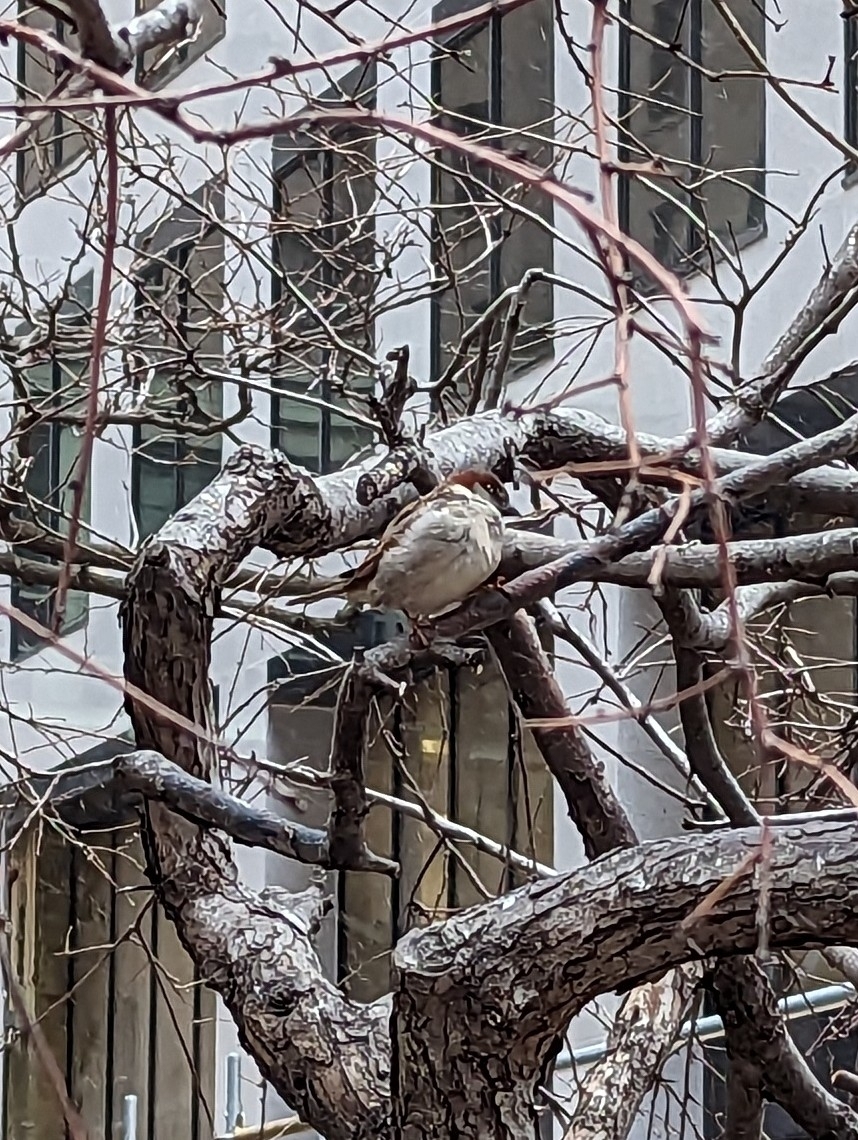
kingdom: Animalia
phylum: Chordata
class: Aves
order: Passeriformes
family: Passeridae
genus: Passer
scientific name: Passer domesticus
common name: House sparrow
